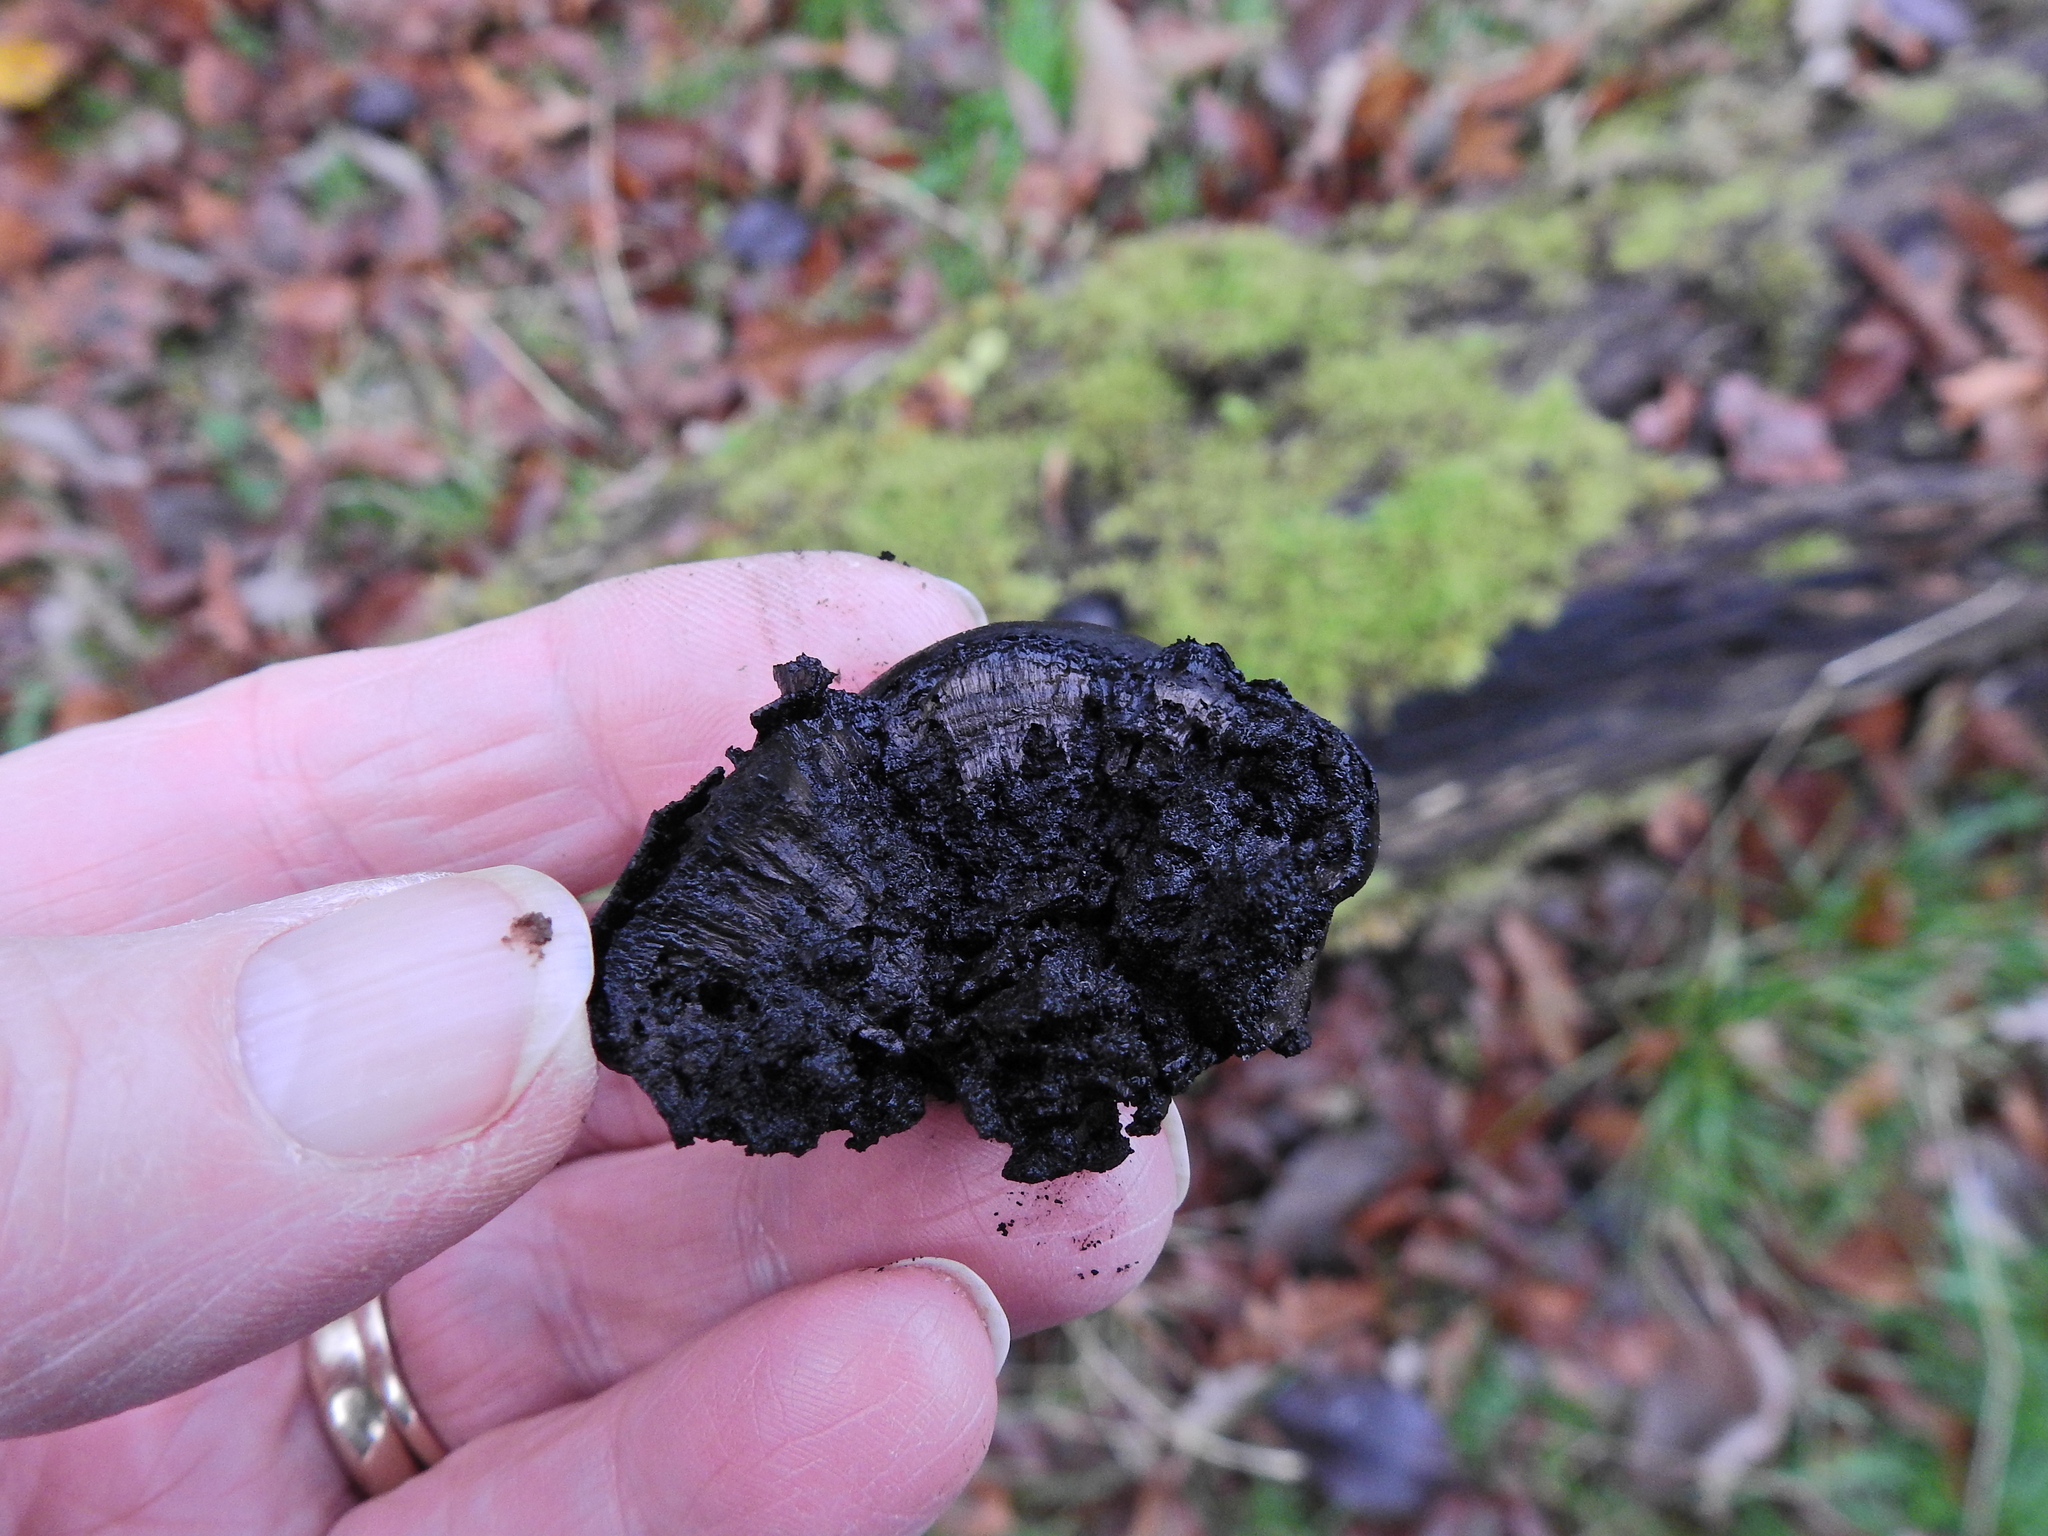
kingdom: Fungi
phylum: Ascomycota
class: Sordariomycetes
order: Xylariales
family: Hypoxylaceae
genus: Daldinia
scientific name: Daldinia concentrica
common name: Cramp balls
